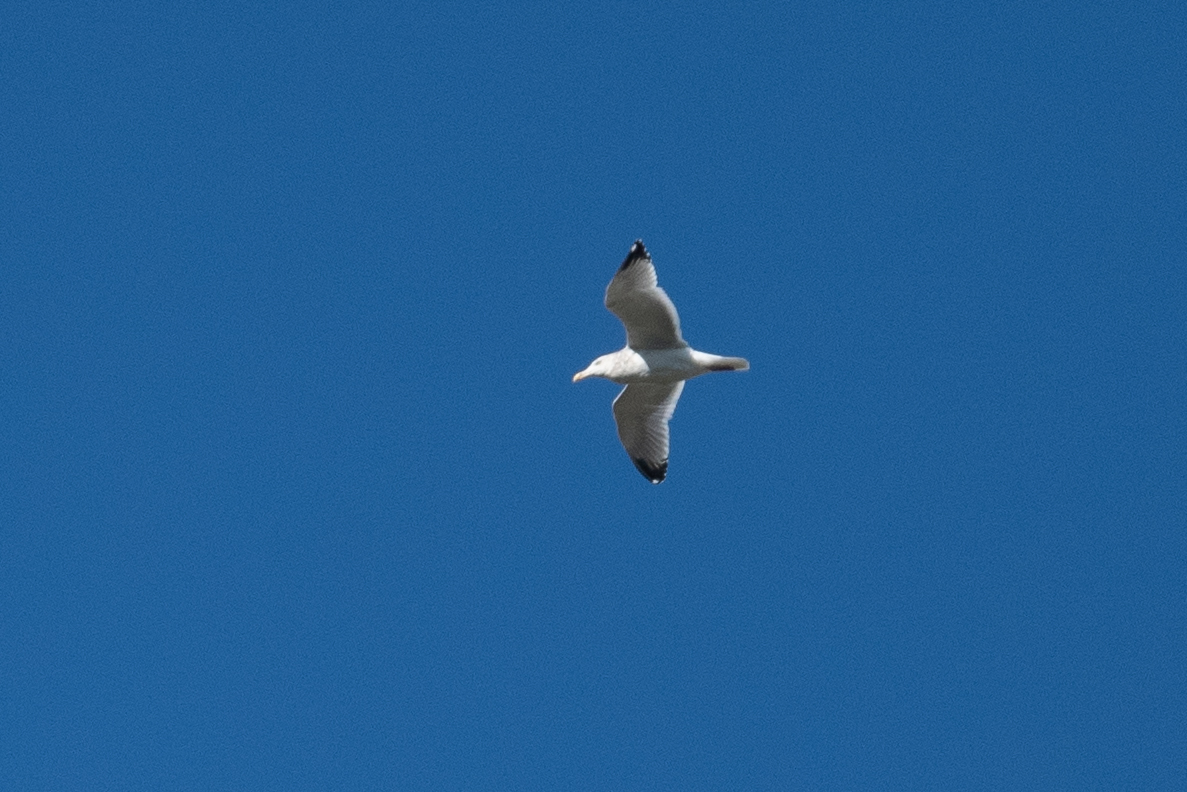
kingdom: Animalia
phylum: Chordata
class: Aves
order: Charadriiformes
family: Laridae
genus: Larus
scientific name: Larus argentatus
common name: Herring gull
